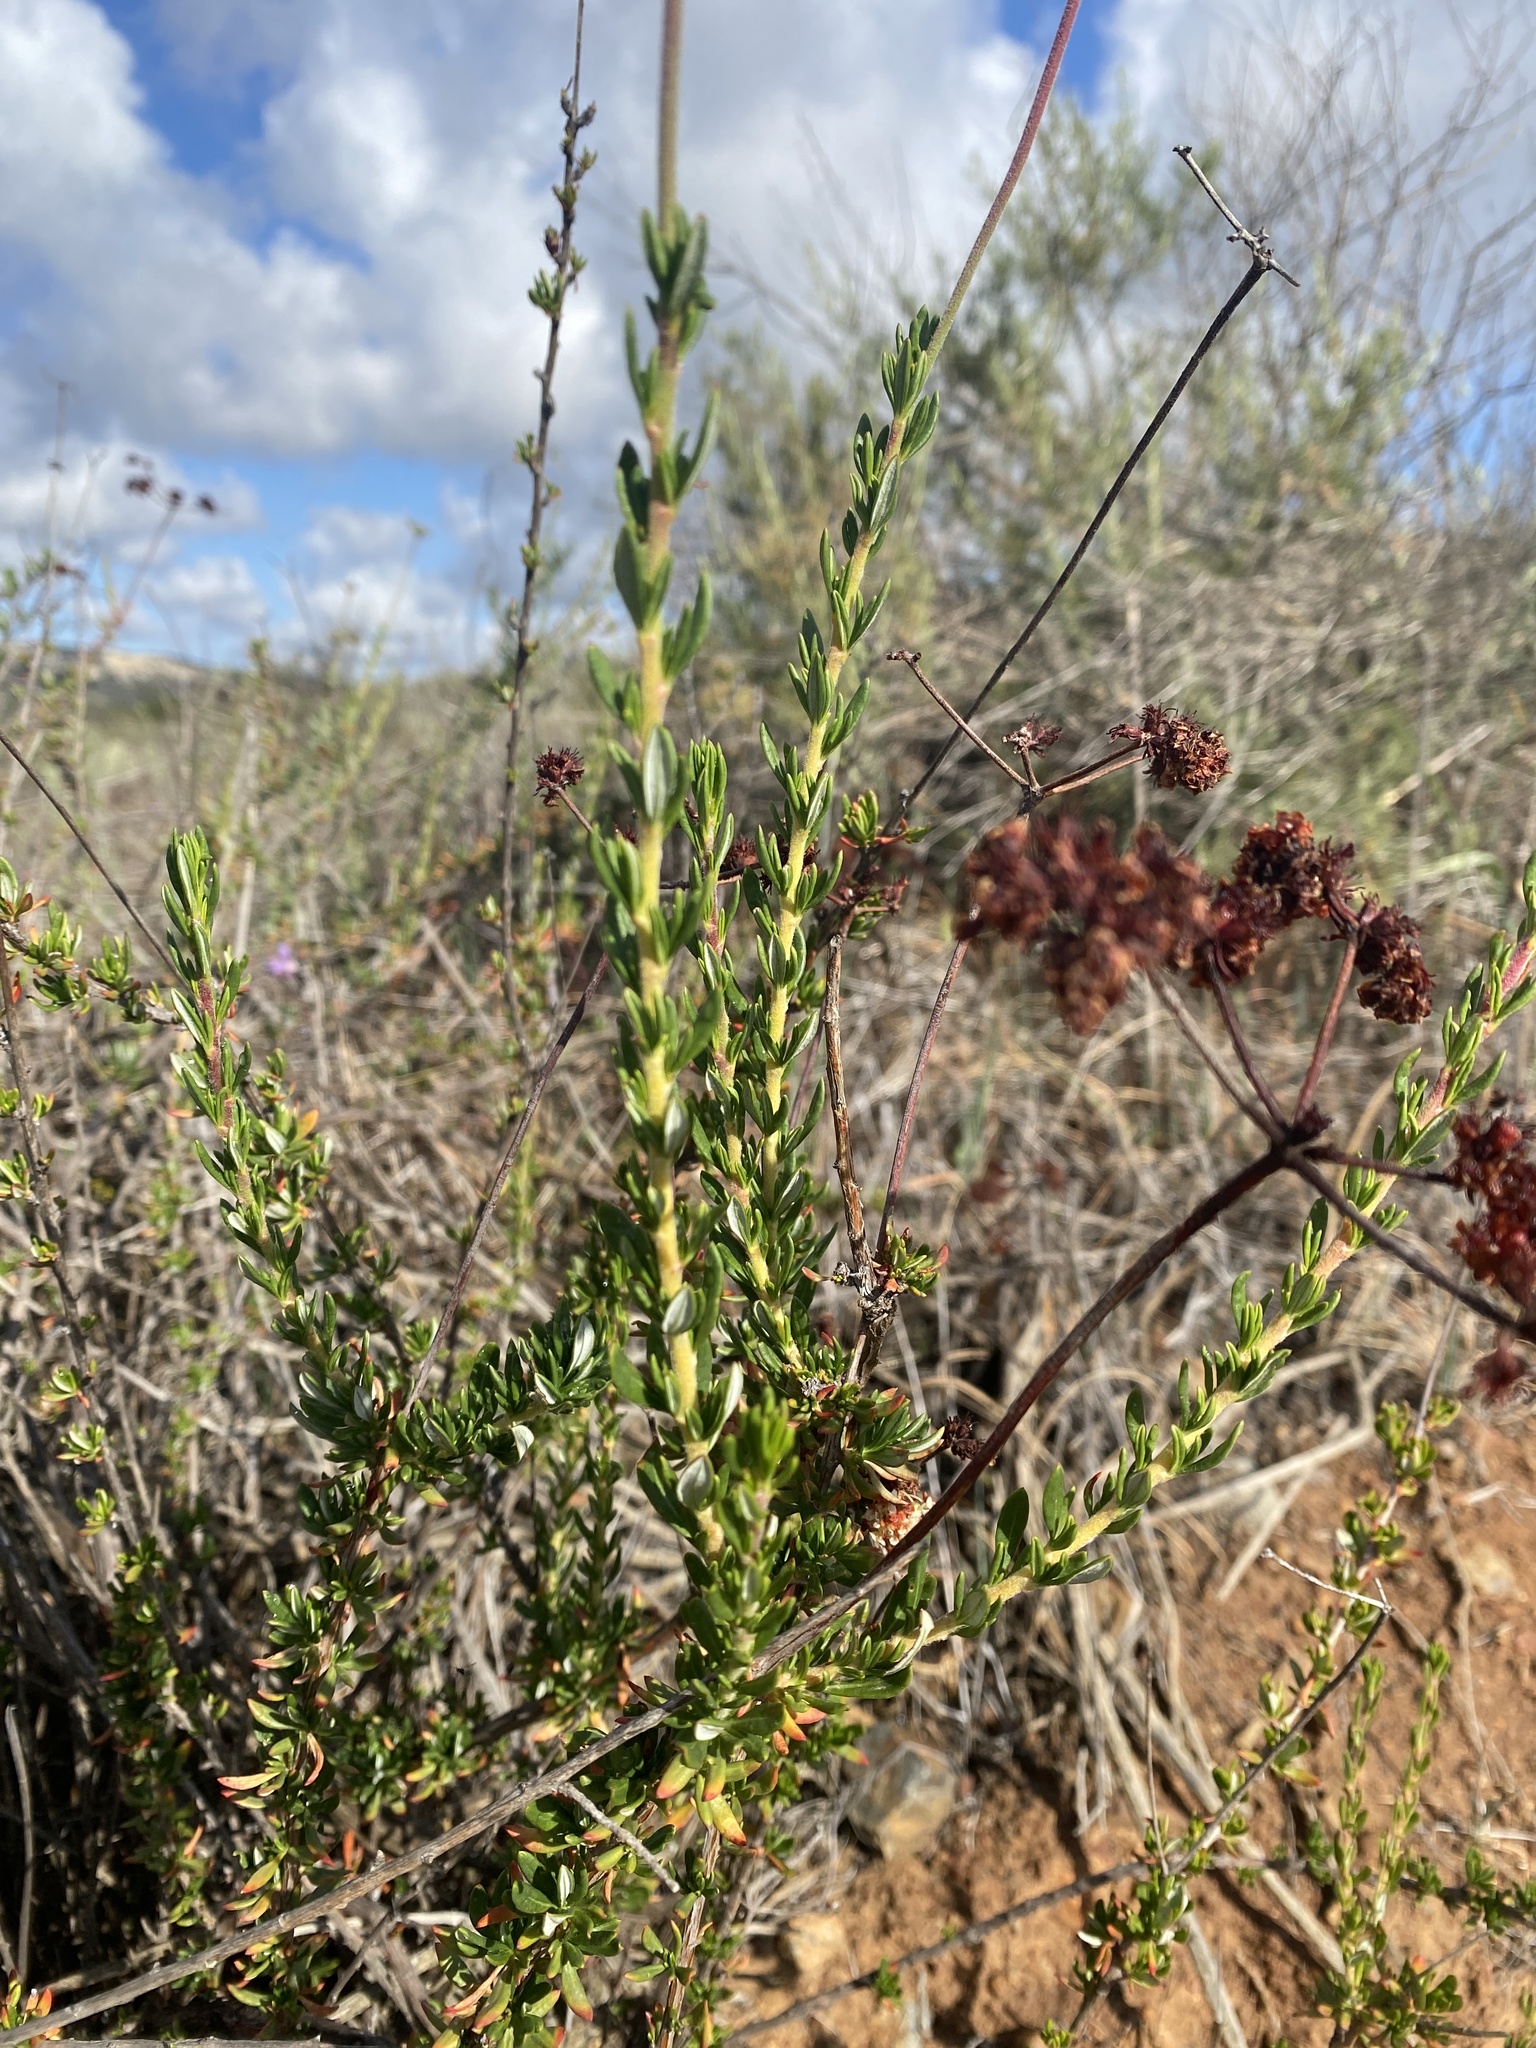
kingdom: Plantae
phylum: Tracheophyta
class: Magnoliopsida
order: Caryophyllales
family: Polygonaceae
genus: Eriogonum
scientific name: Eriogonum fasciculatum
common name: California wild buckwheat
